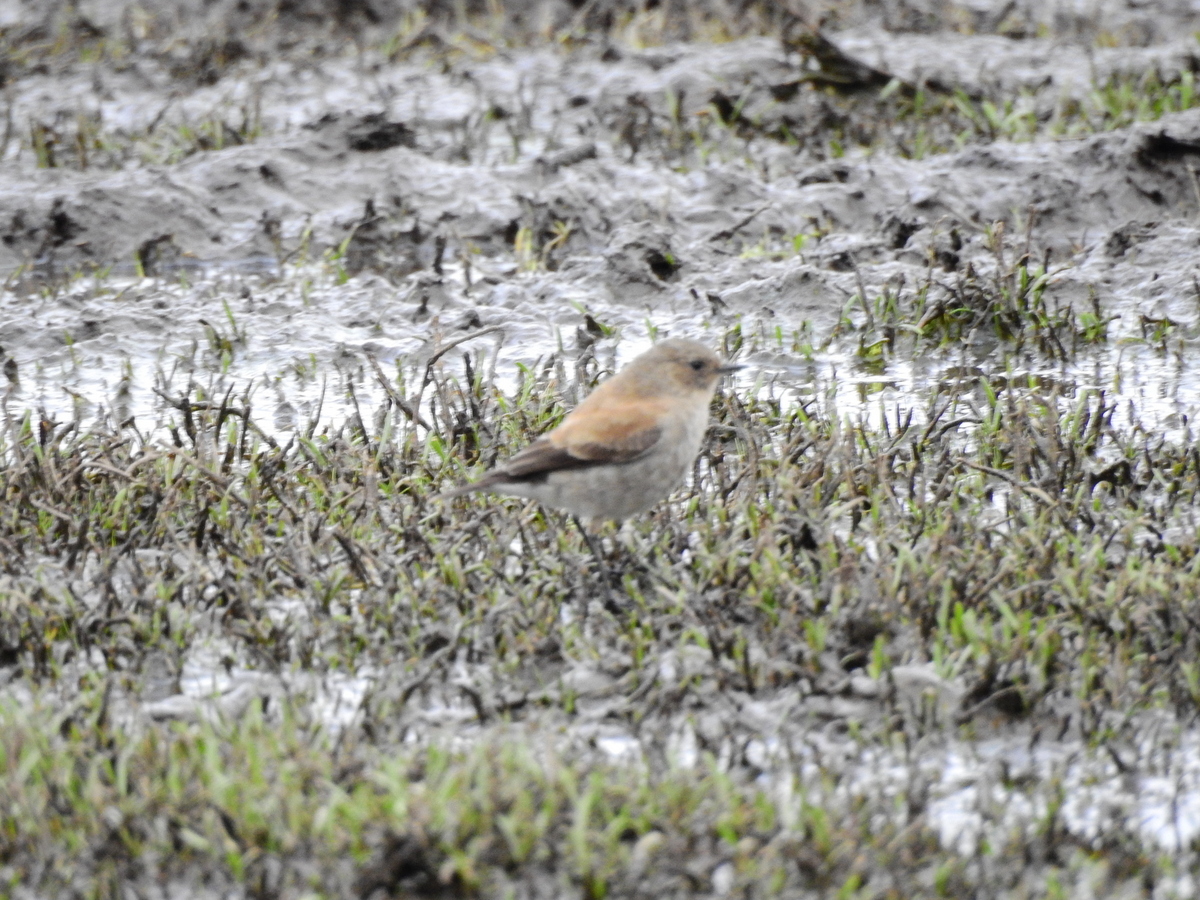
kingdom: Animalia
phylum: Chordata
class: Aves
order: Passeriformes
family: Tyrannidae
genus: Lessonia
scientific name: Lessonia rufa
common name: Austral negrito
